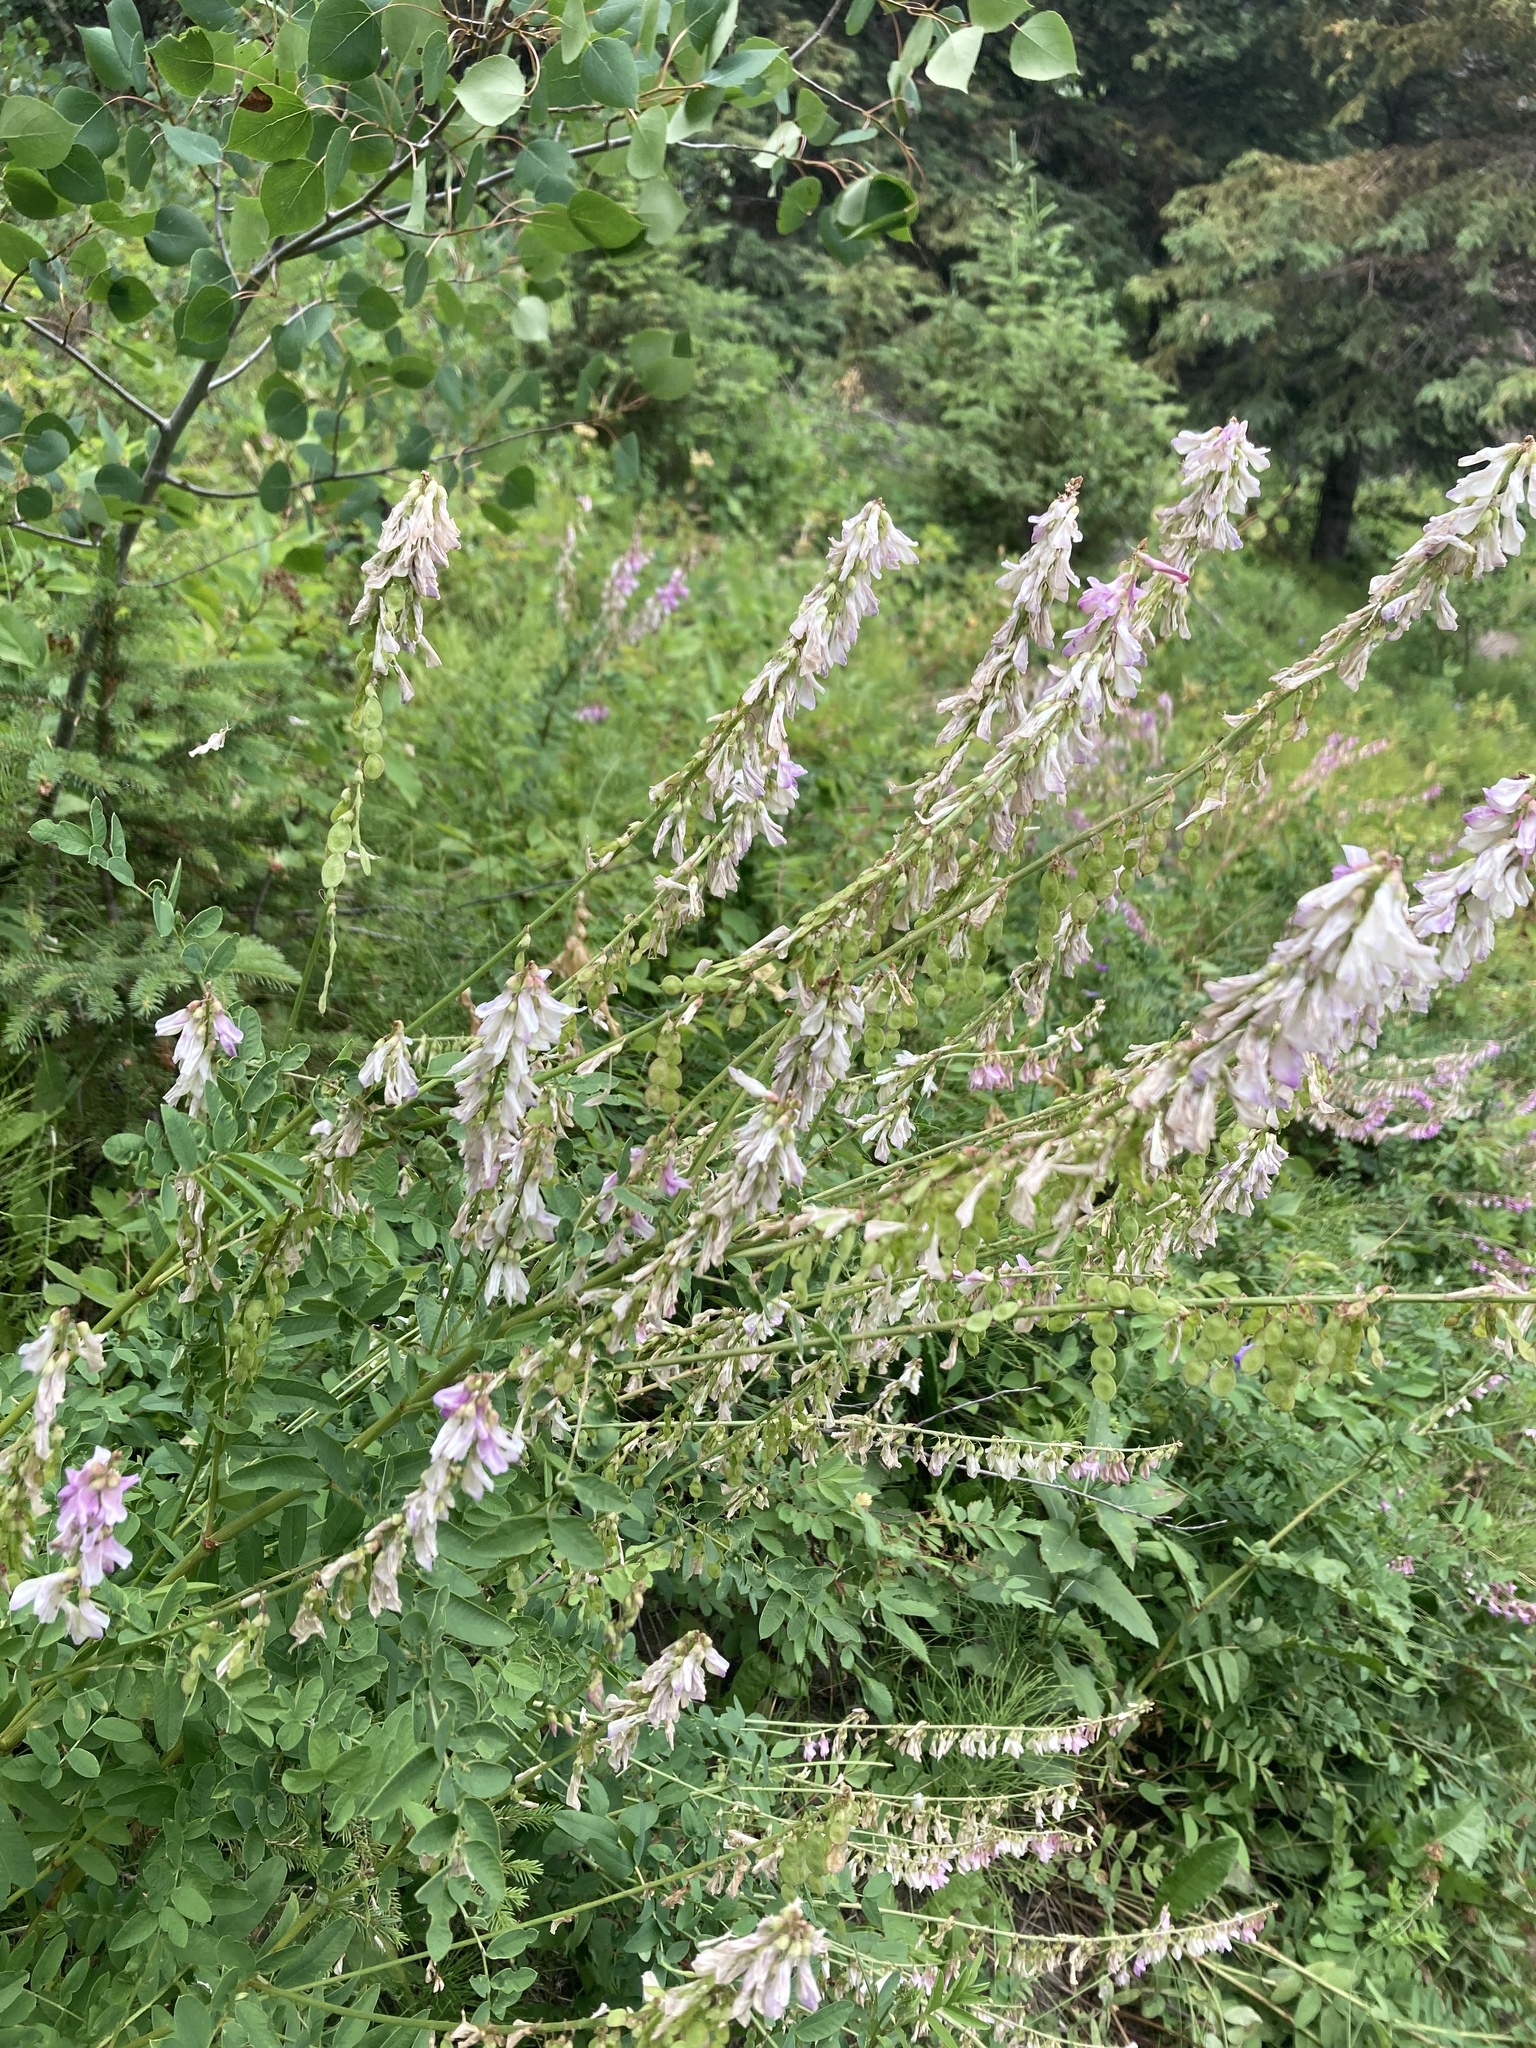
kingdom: Plantae
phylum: Tracheophyta
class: Magnoliopsida
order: Fabales
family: Fabaceae
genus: Hedysarum
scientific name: Hedysarum alpinum
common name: Alpine sweet-vetch
